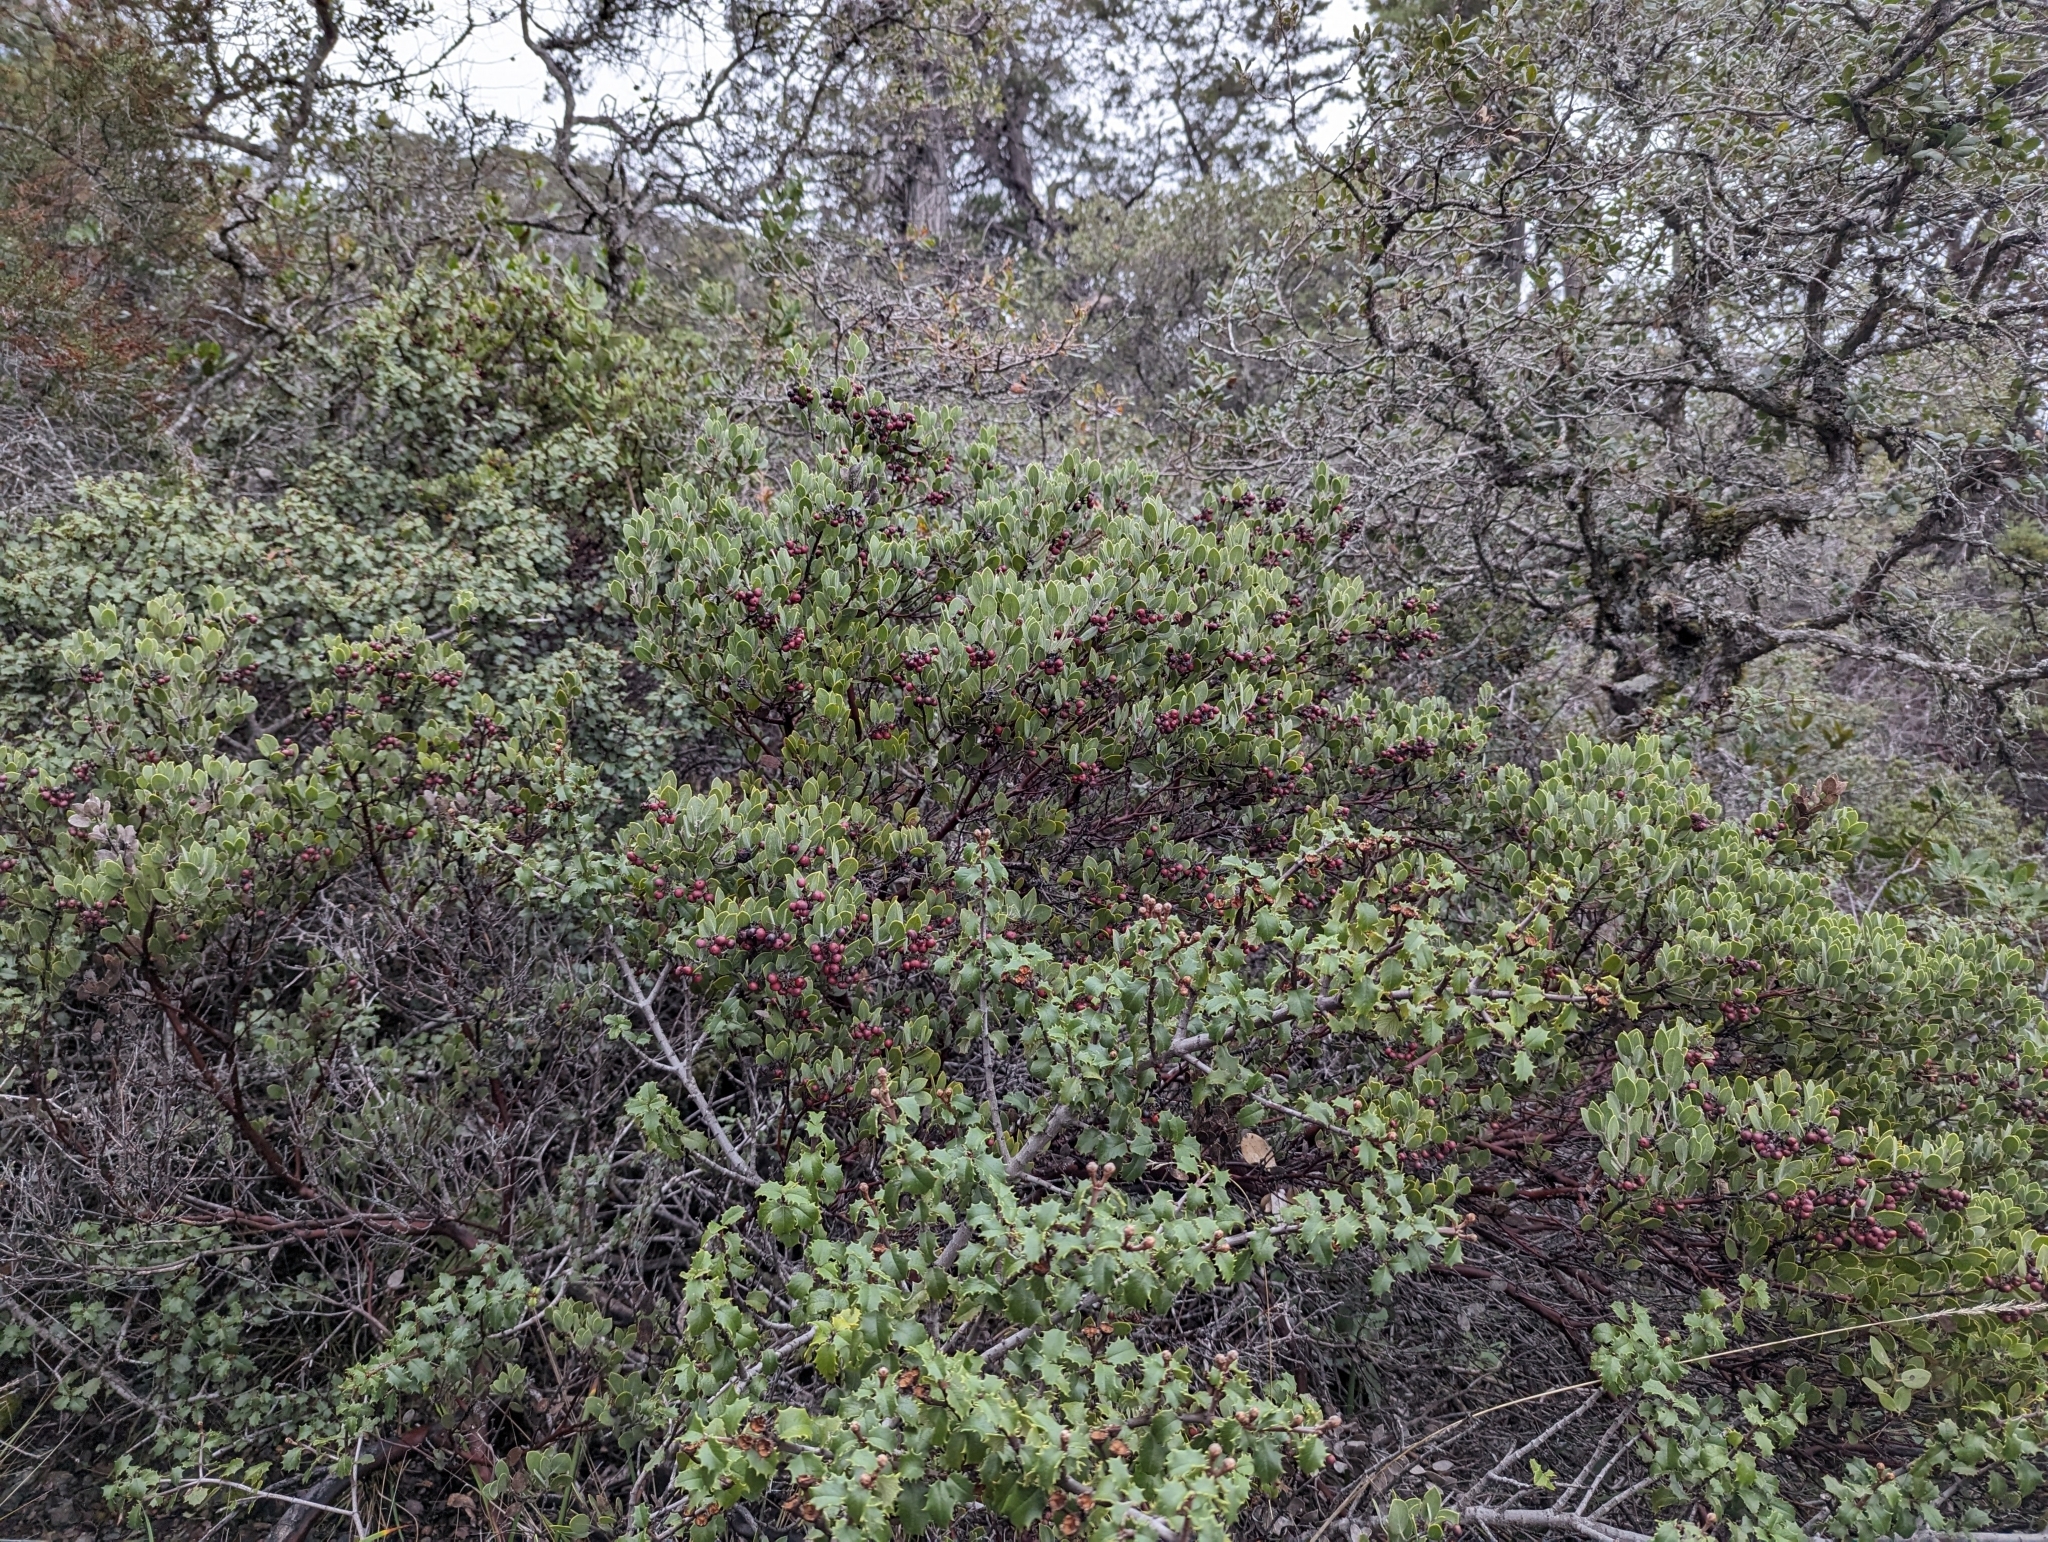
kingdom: Plantae
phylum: Tracheophyta
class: Magnoliopsida
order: Ericales
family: Ericaceae
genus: Arctostaphylos
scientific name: Arctostaphylos montana
